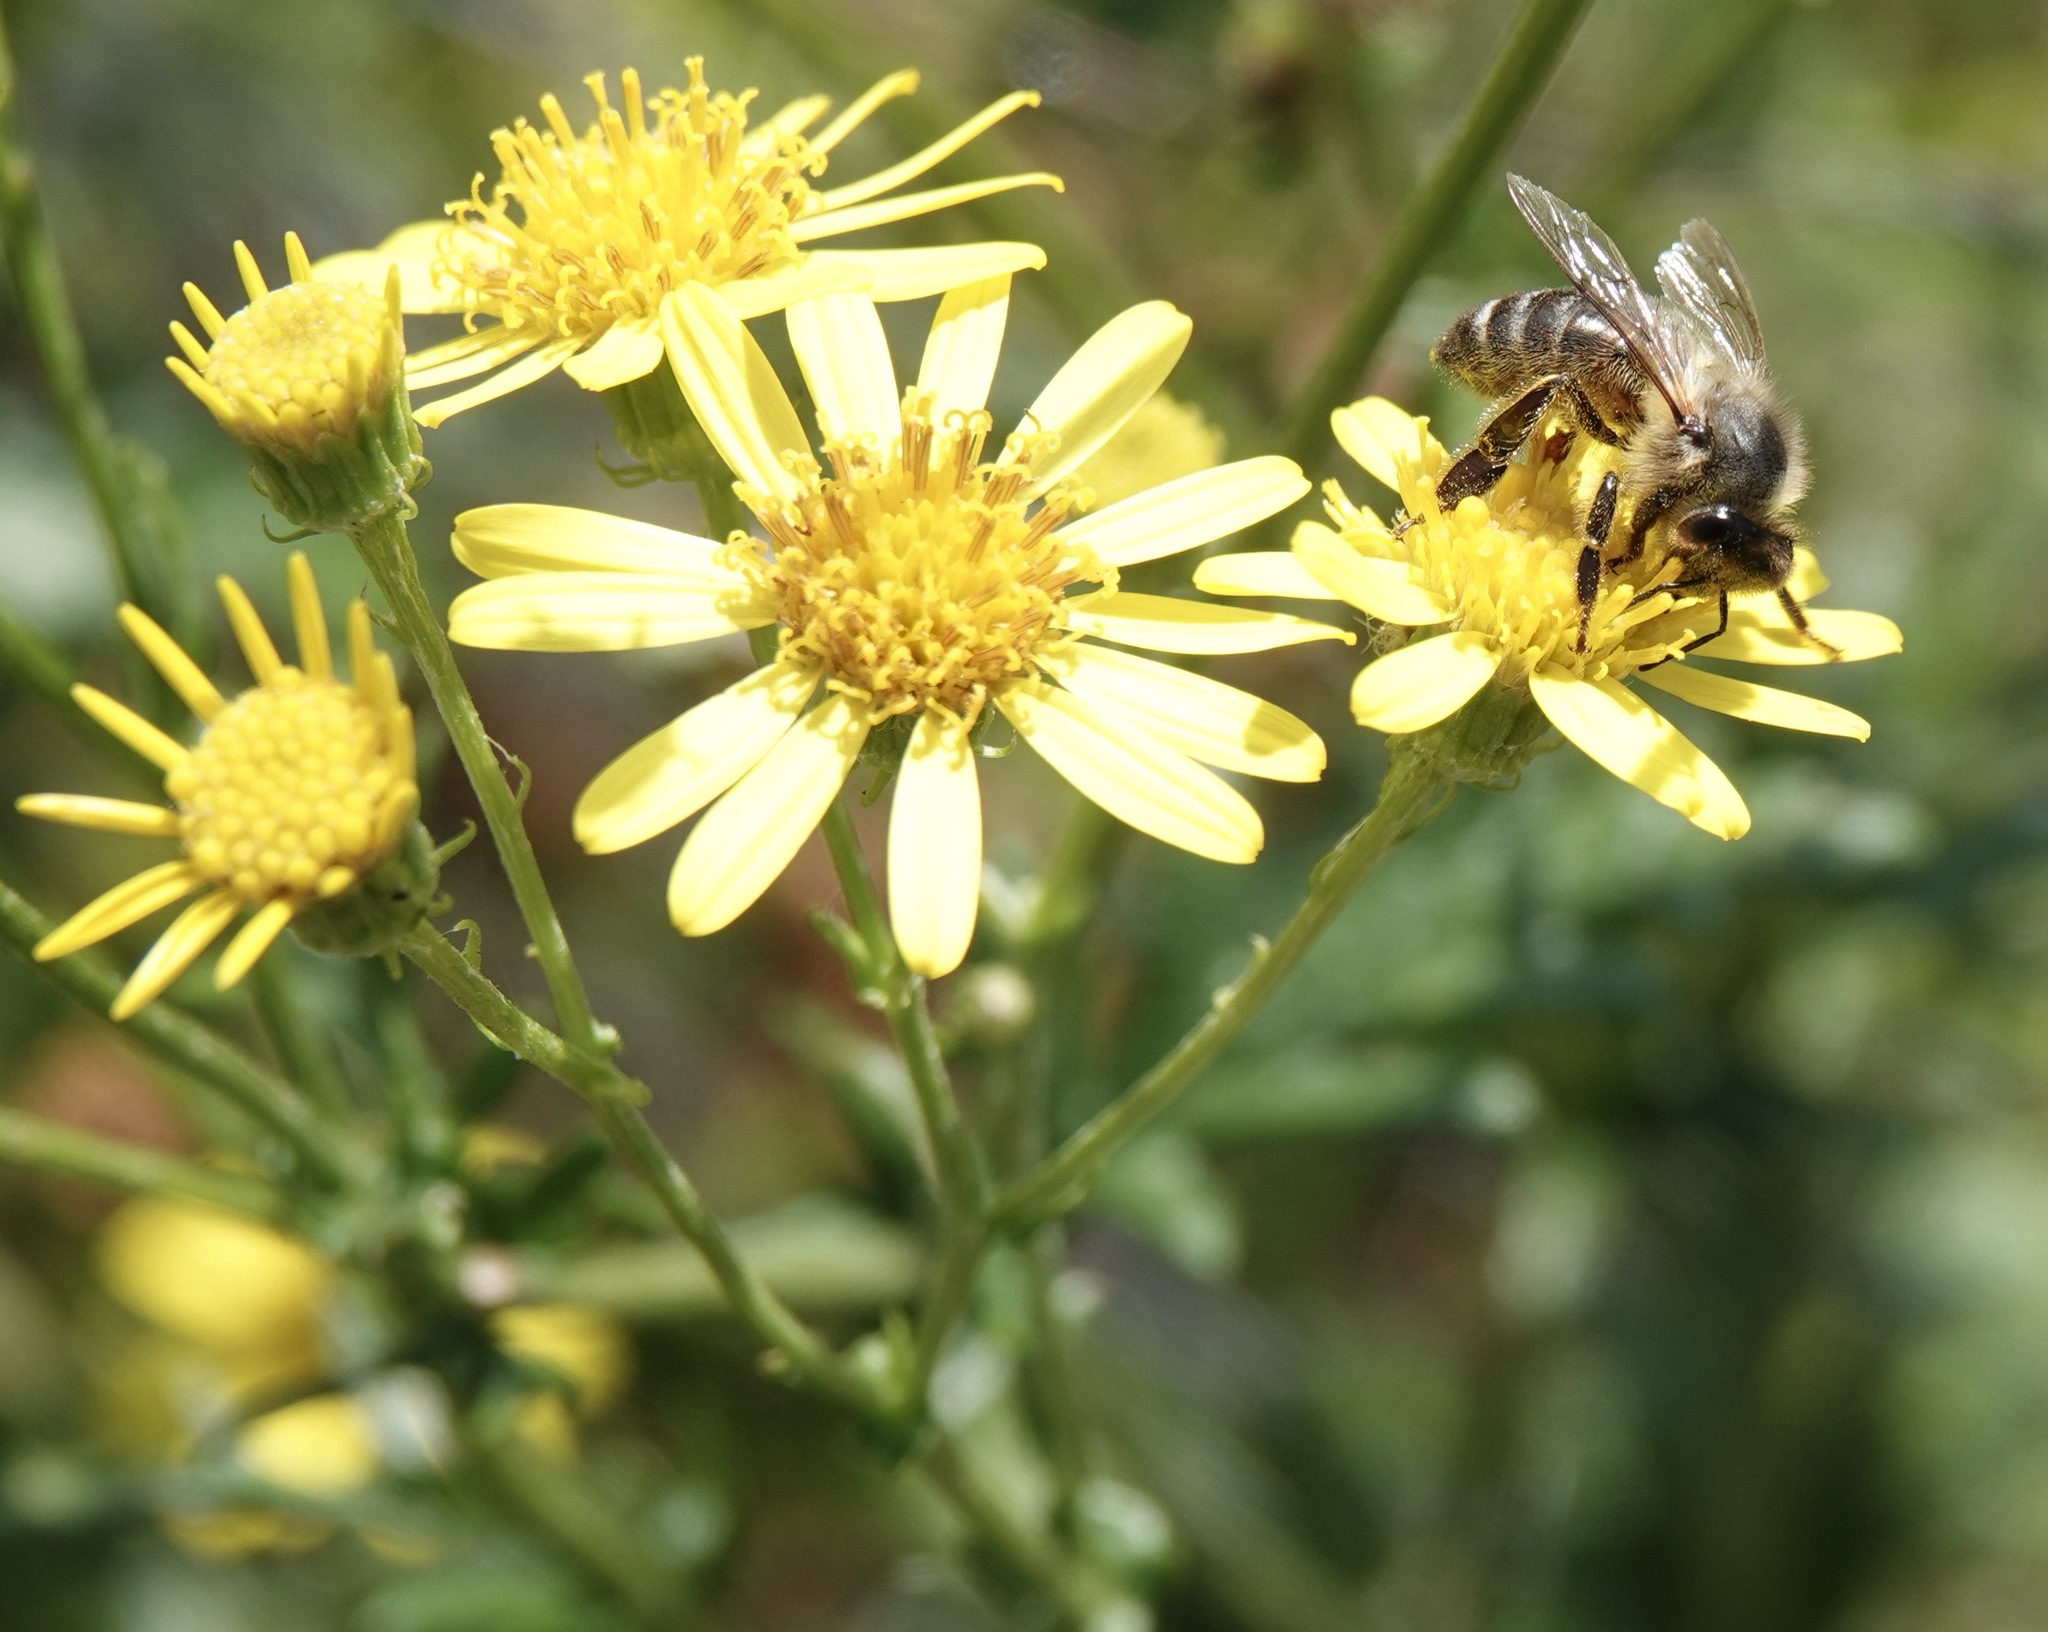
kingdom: Animalia
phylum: Arthropoda
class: Insecta
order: Hymenoptera
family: Apidae
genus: Apis
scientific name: Apis mellifera
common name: Honey bee
